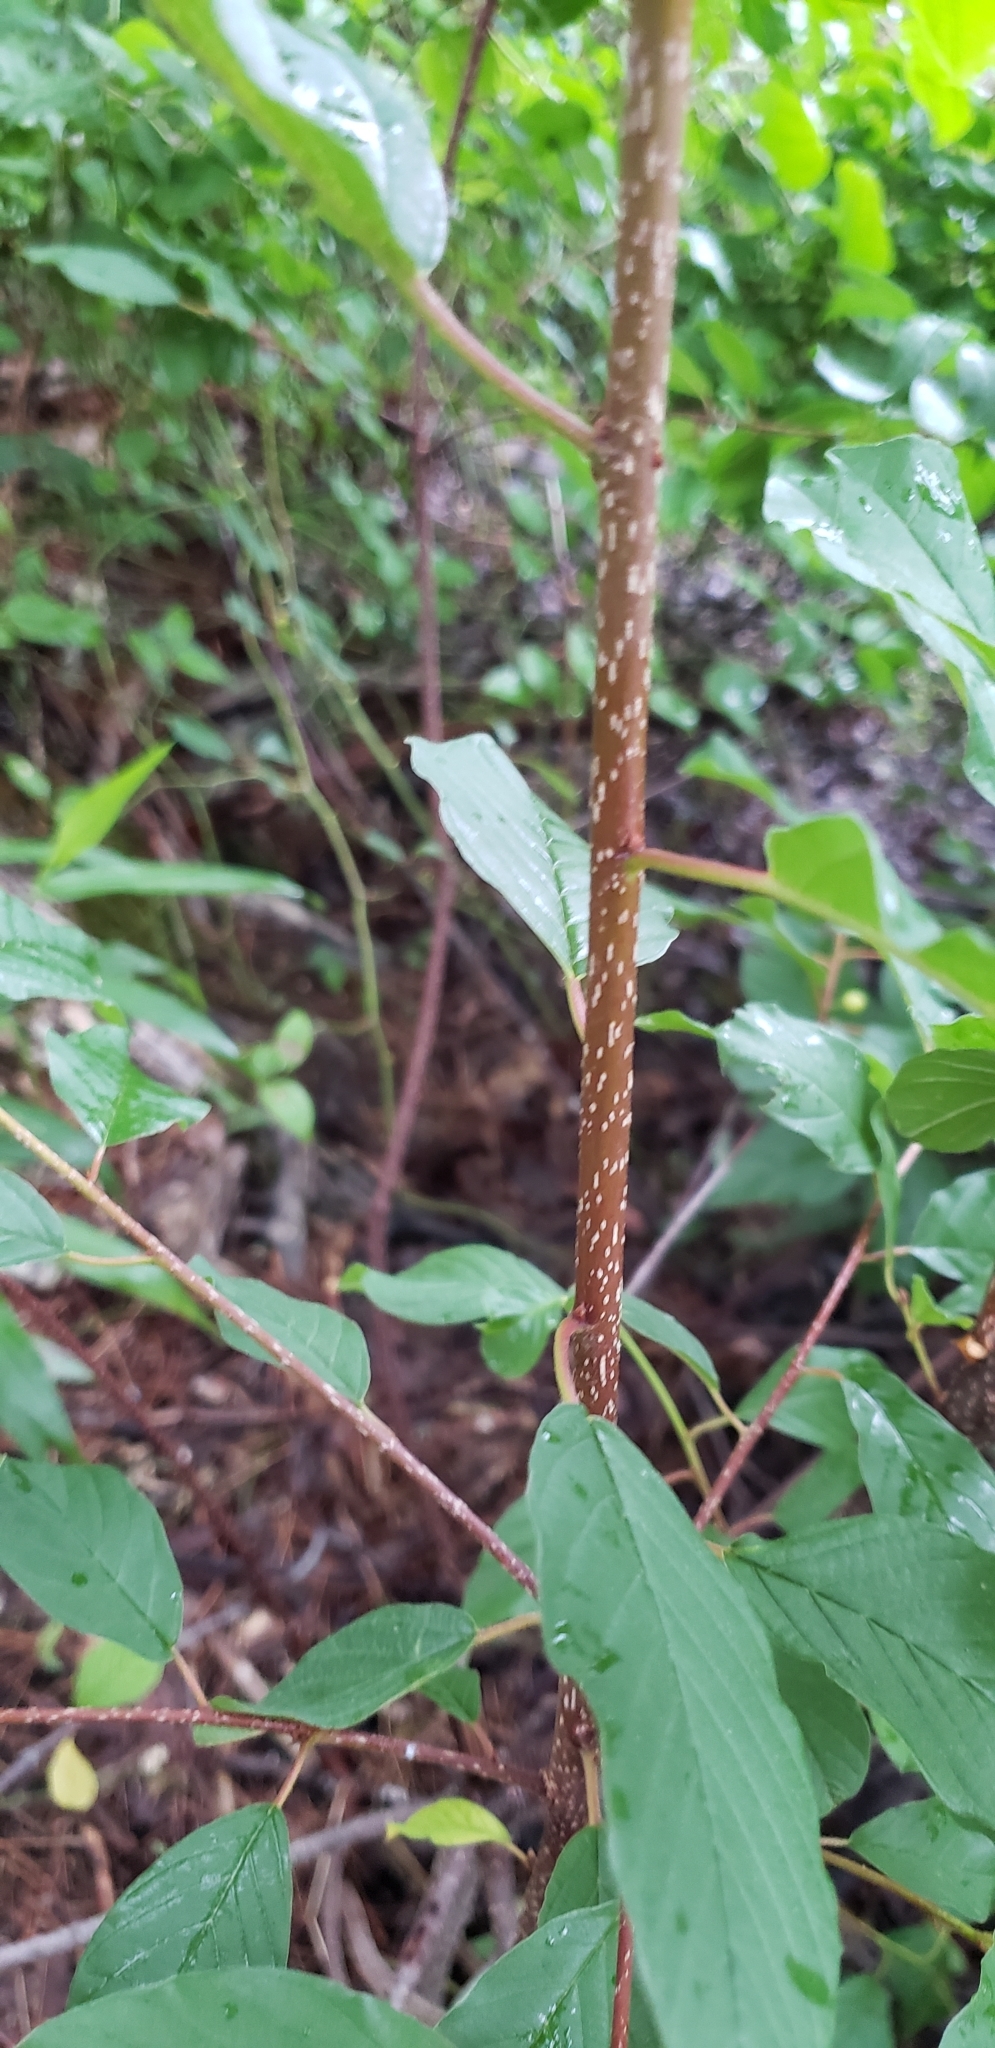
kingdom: Plantae
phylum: Tracheophyta
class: Magnoliopsida
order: Rosales
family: Rhamnaceae
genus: Frangula
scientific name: Frangula alnus
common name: Alder buckthorn
